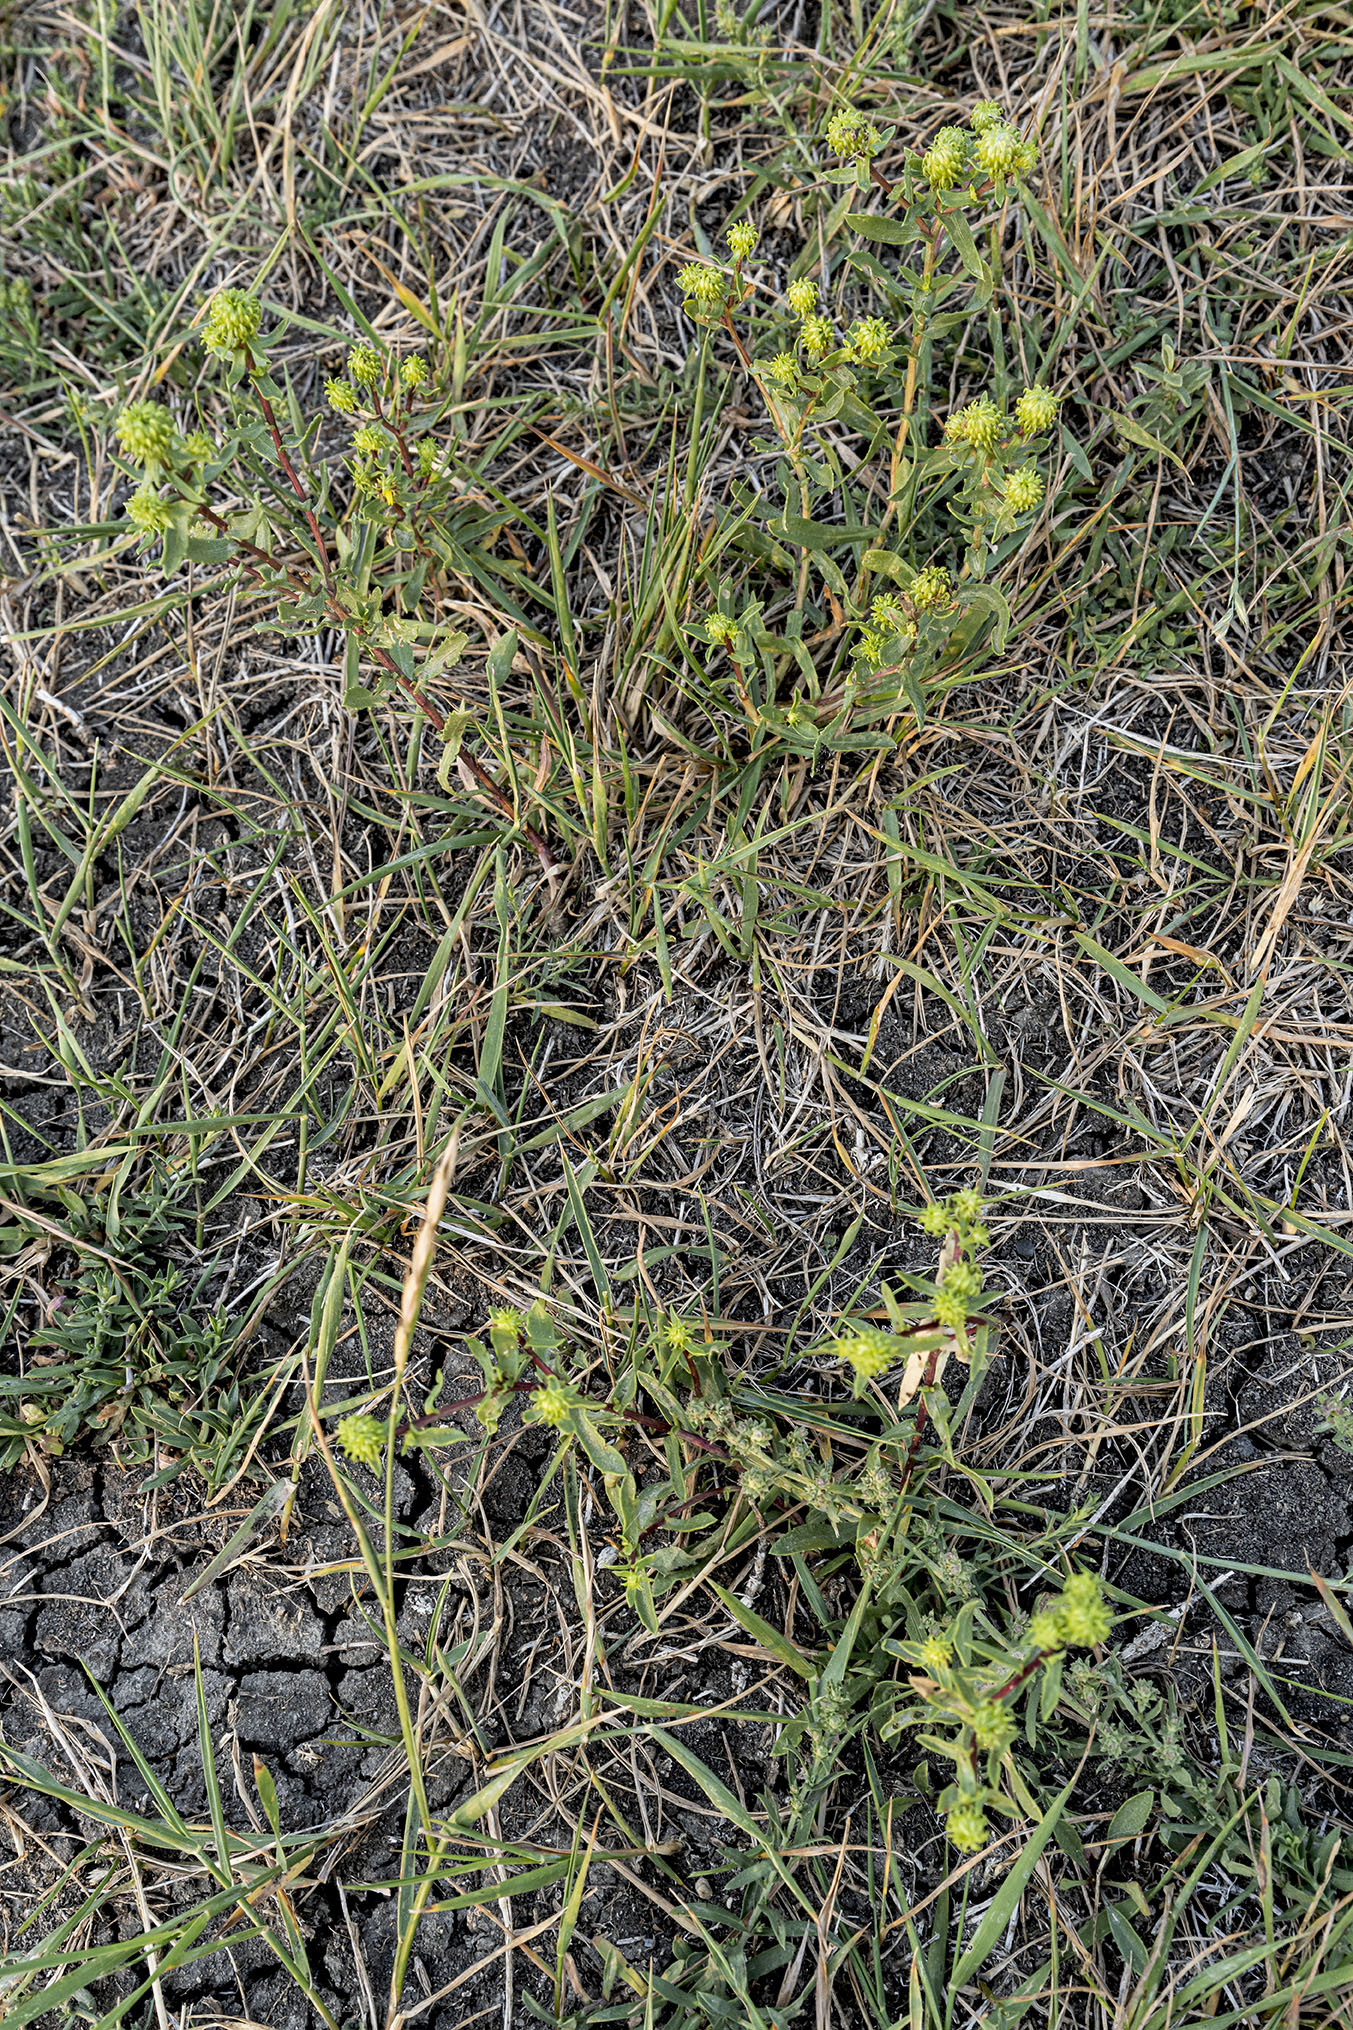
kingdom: Plantae
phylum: Tracheophyta
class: Magnoliopsida
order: Asterales
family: Asteraceae
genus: Grindelia
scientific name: Grindelia squarrosa
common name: Curly-cup gumweed
